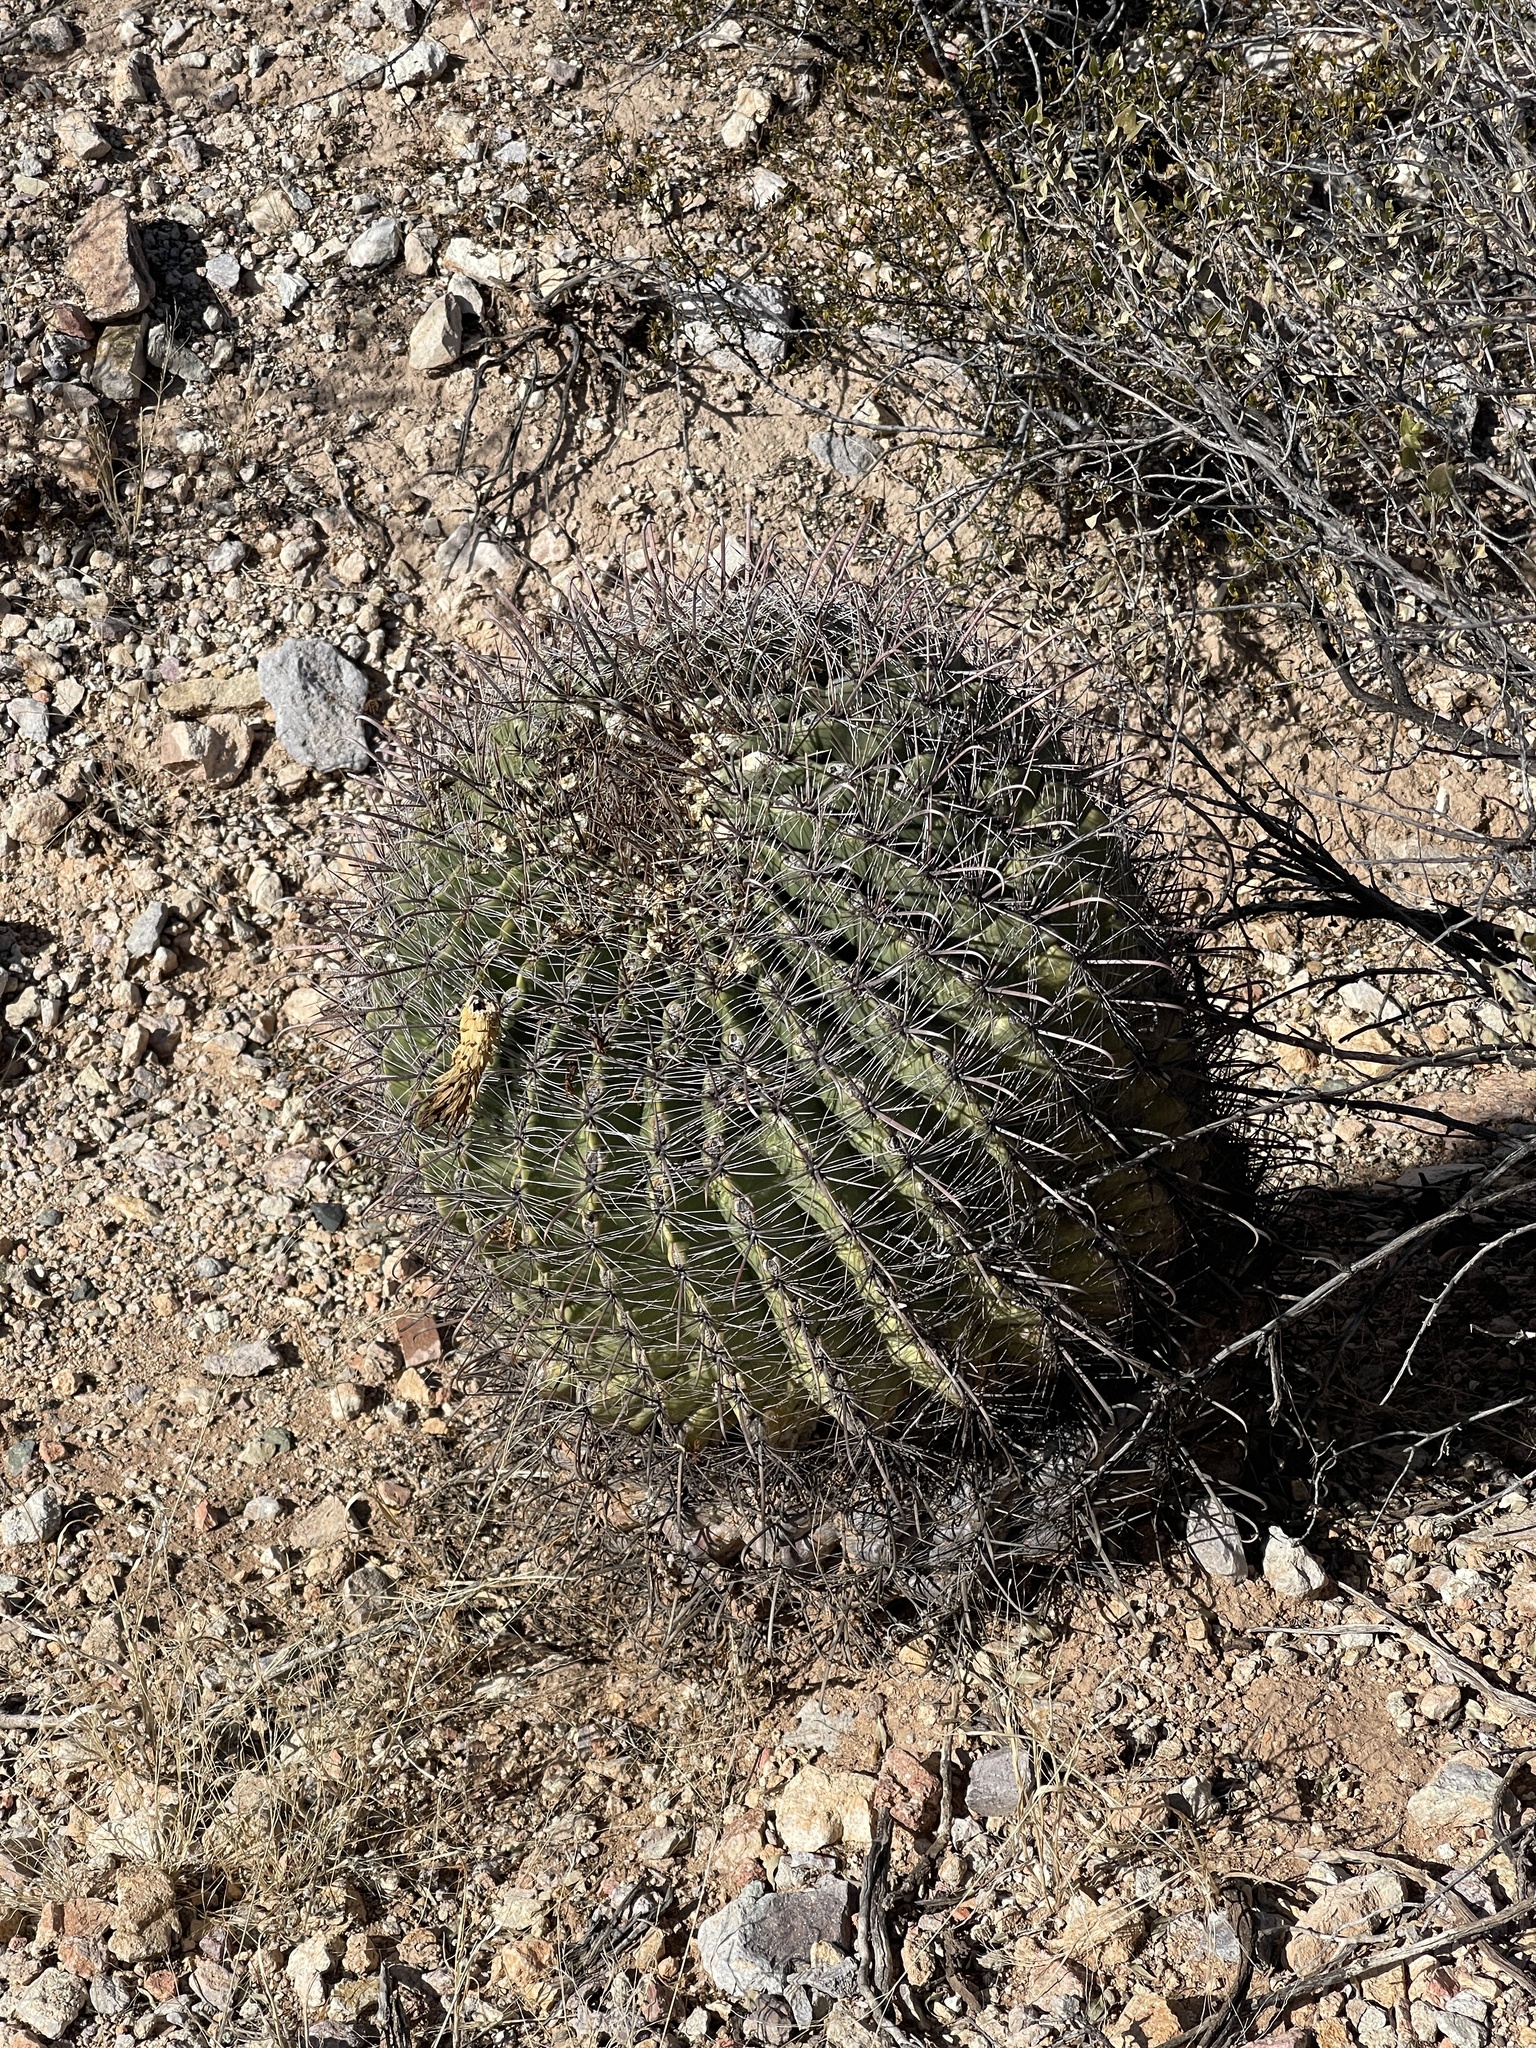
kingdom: Plantae
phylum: Tracheophyta
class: Magnoliopsida
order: Caryophyllales
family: Cactaceae
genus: Ferocactus
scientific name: Ferocactus wislizeni
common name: Candy barrel cactus
